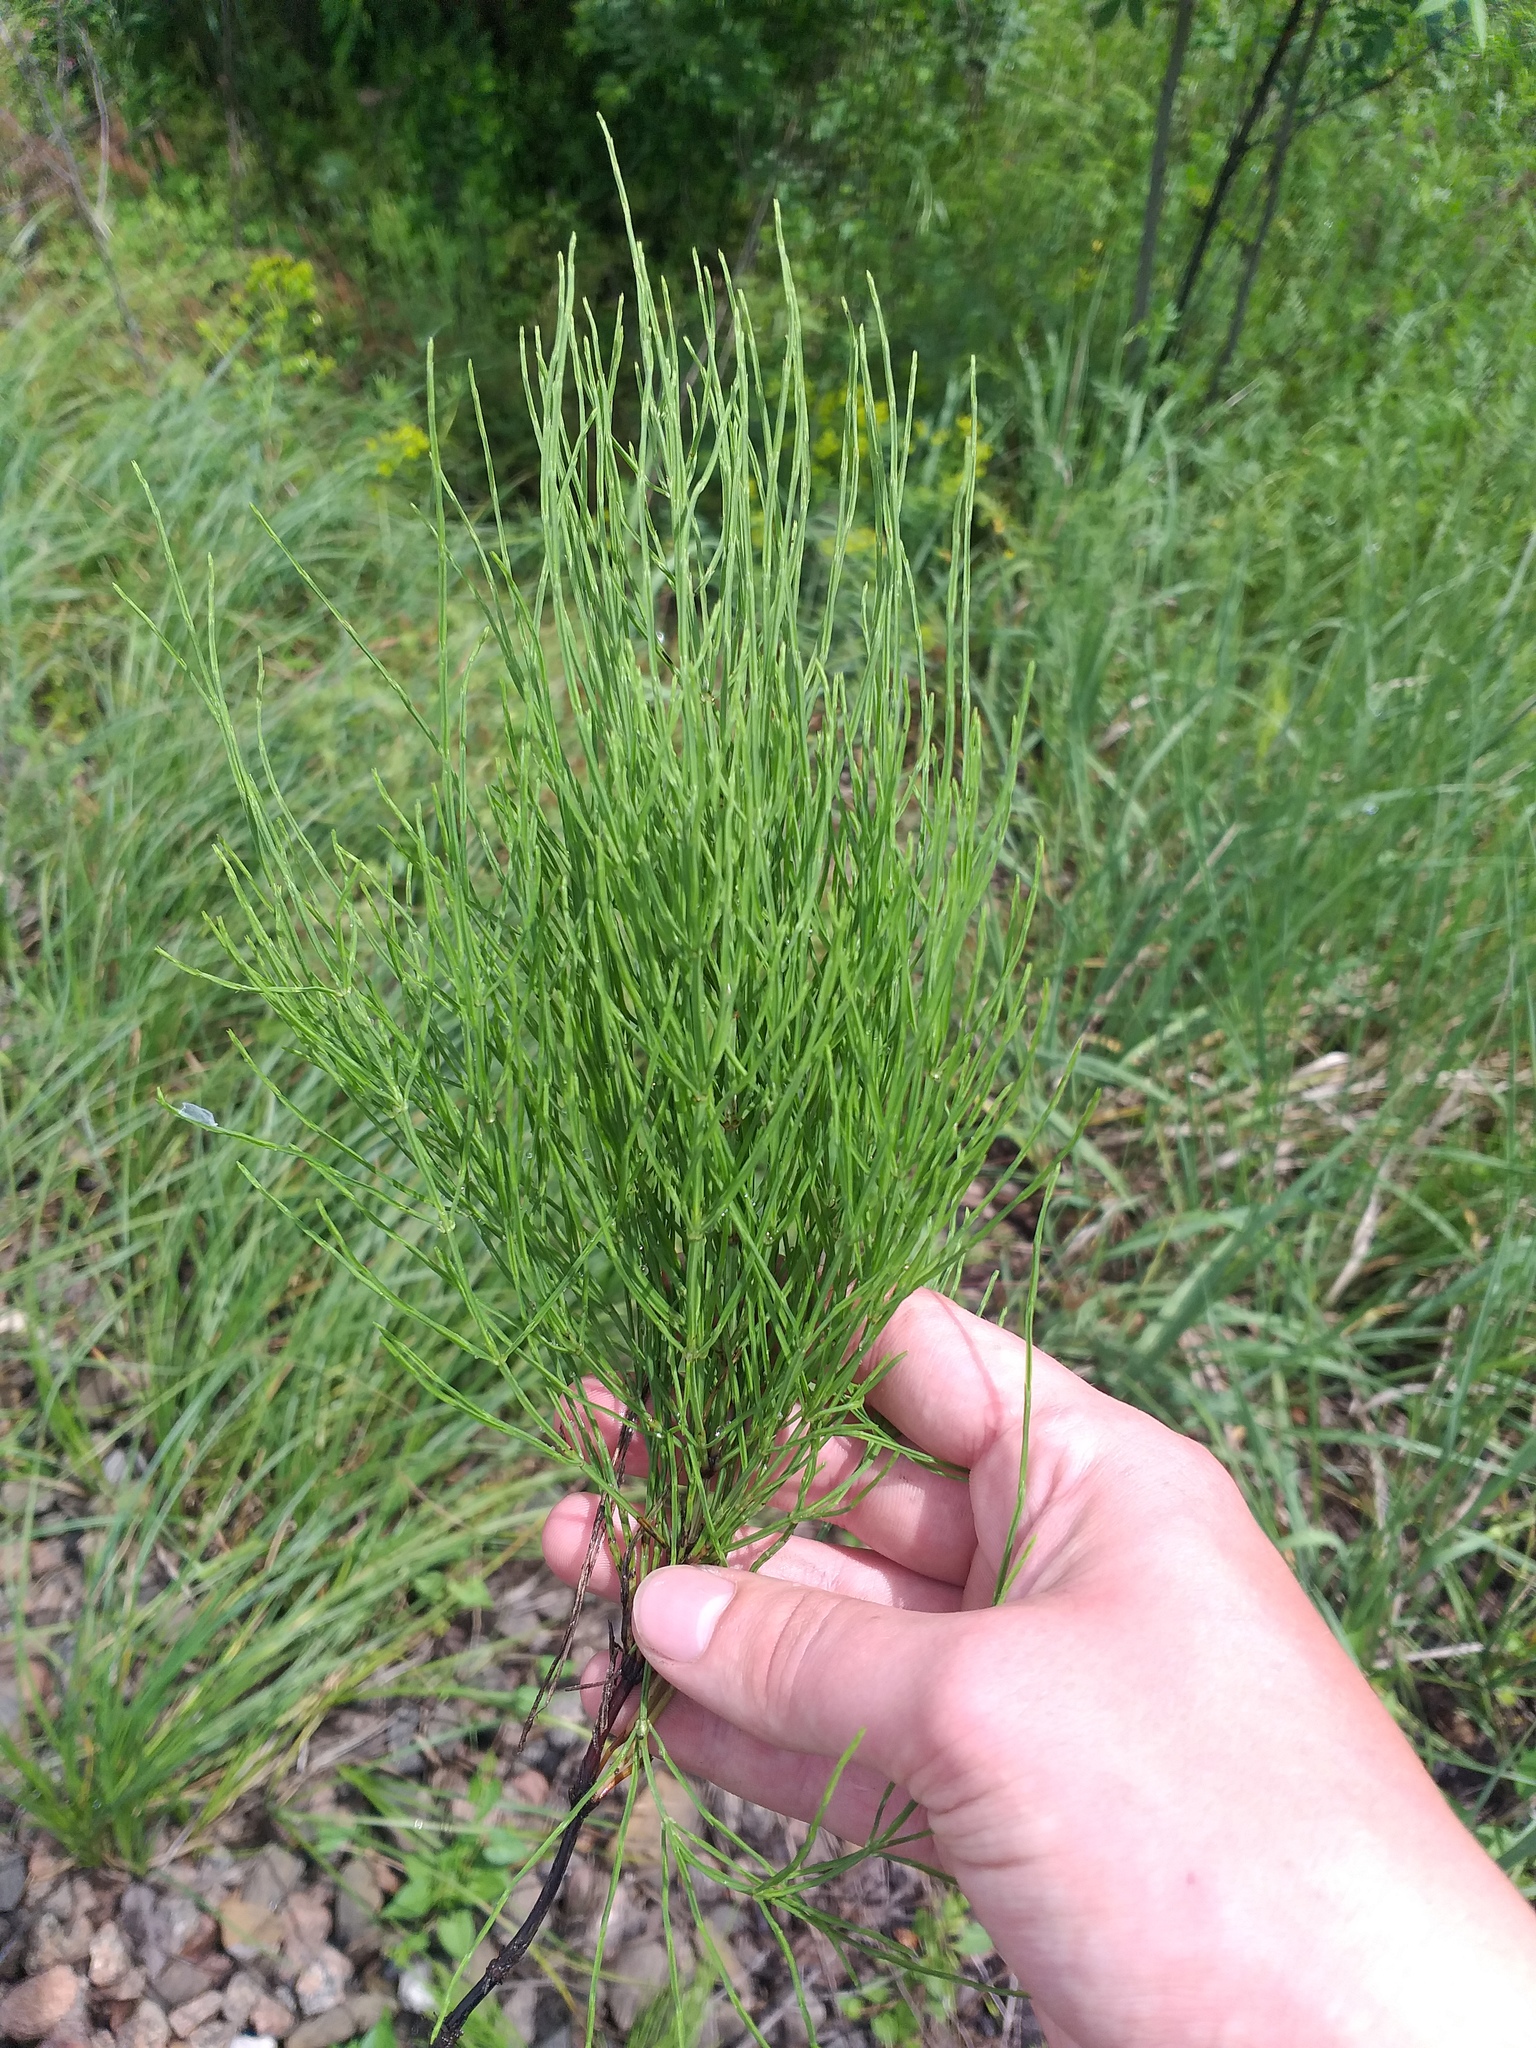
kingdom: Plantae
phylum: Tracheophyta
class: Polypodiopsida
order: Equisetales
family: Equisetaceae
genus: Equisetum
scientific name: Equisetum arvense
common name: Field horsetail
